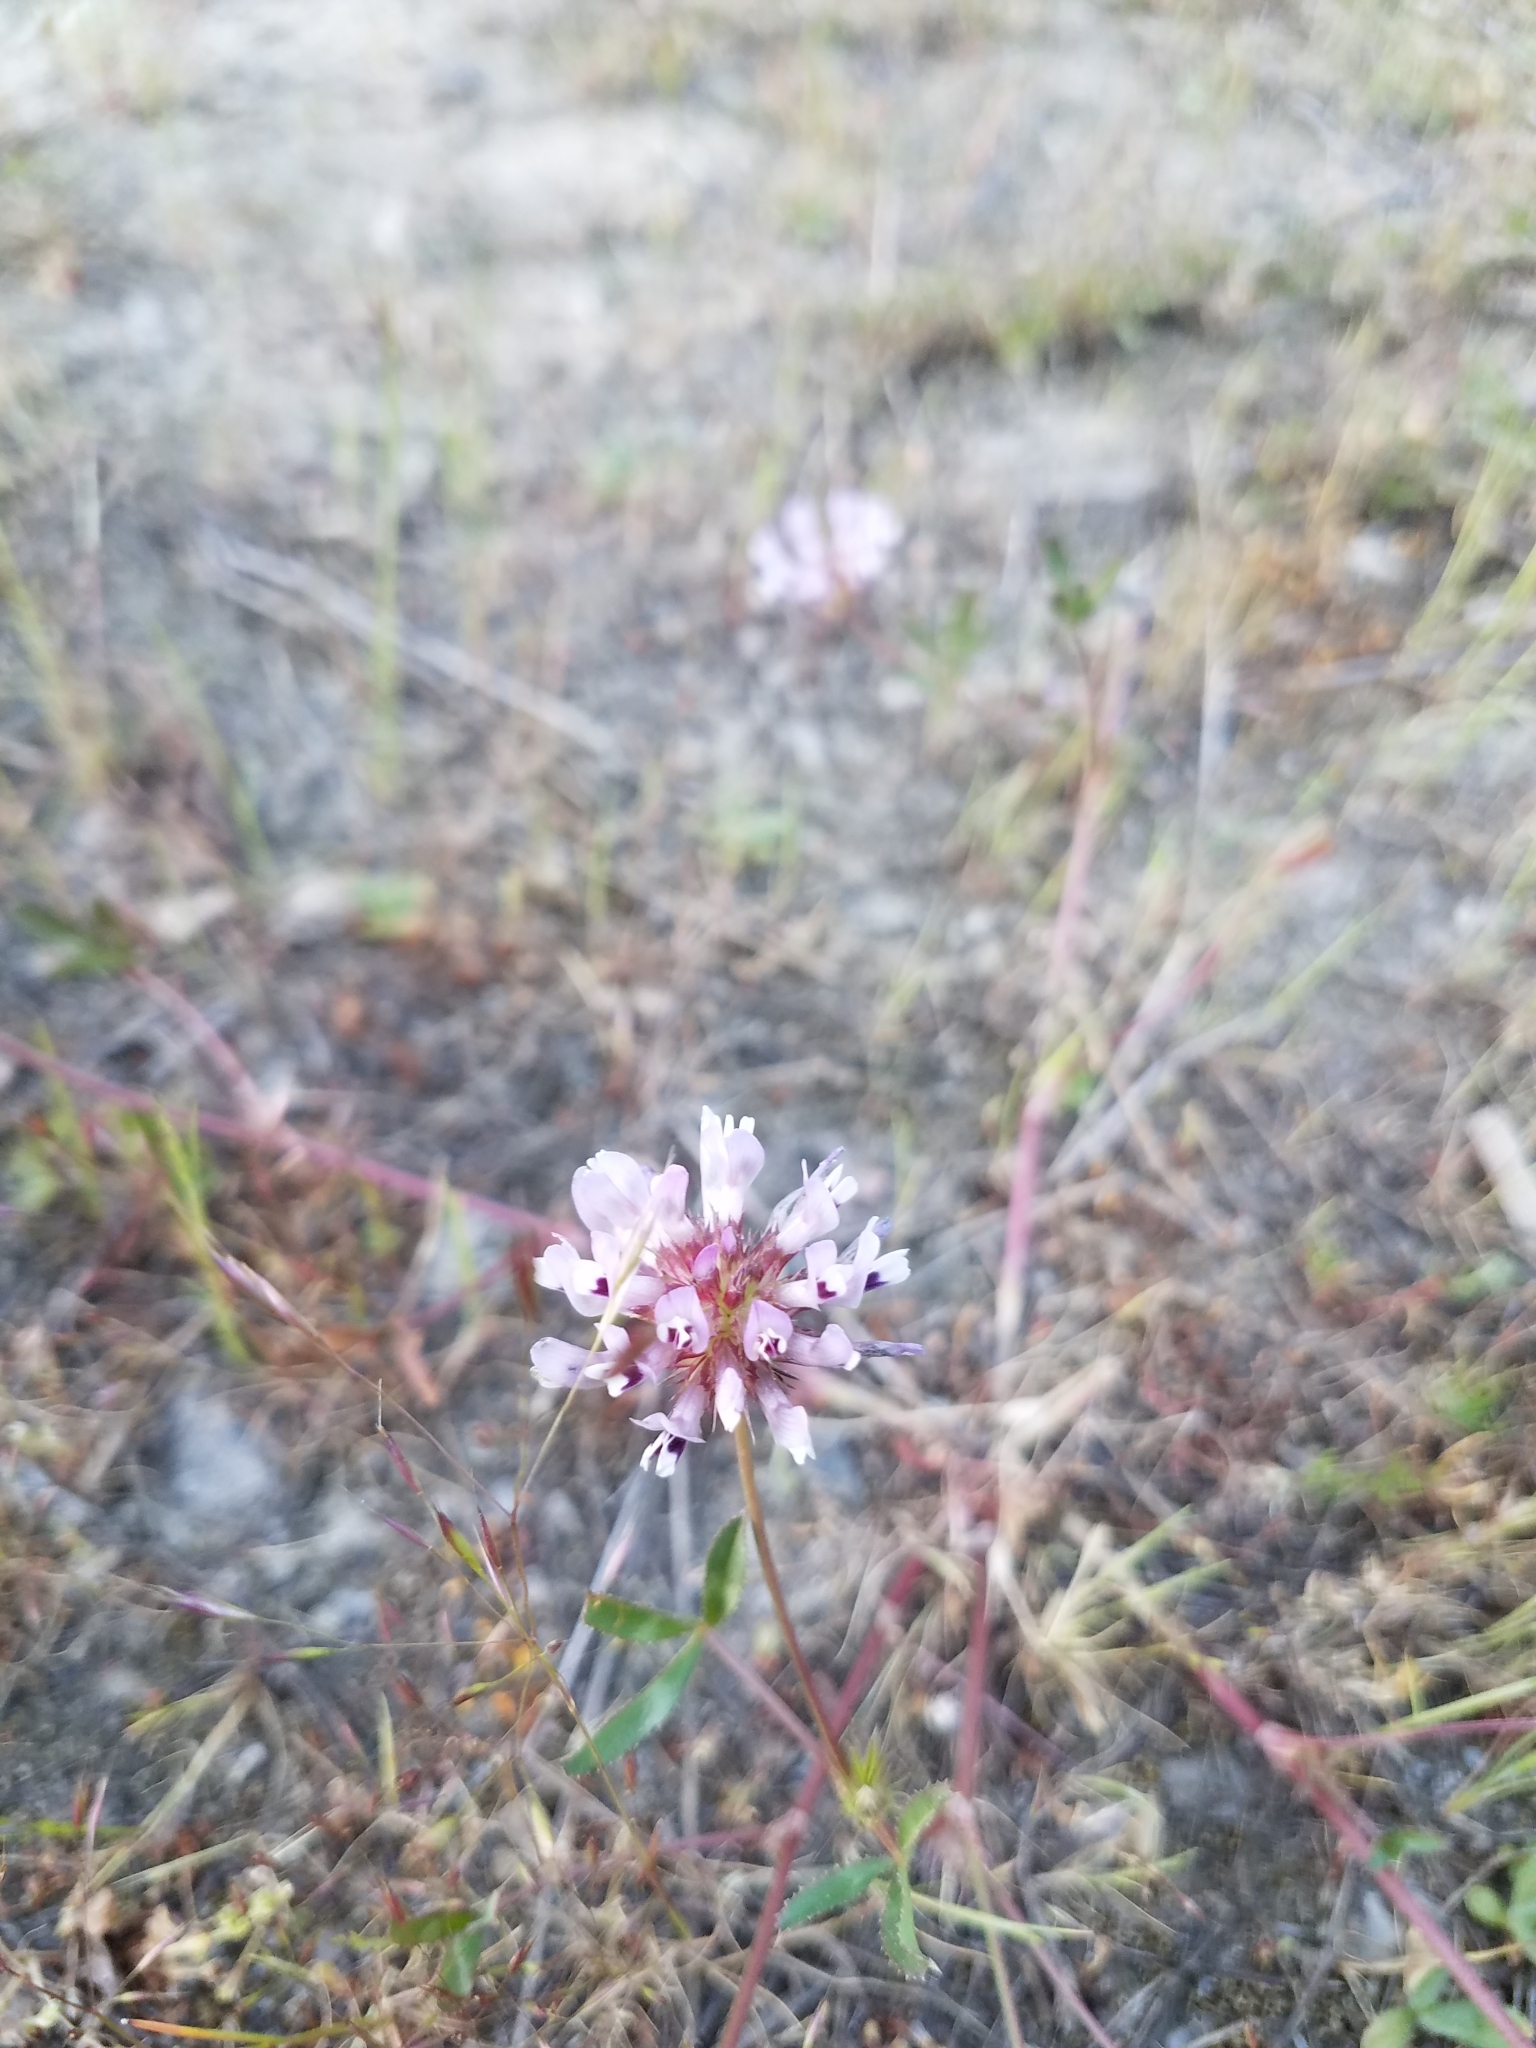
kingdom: Plantae
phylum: Tracheophyta
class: Magnoliopsida
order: Fabales
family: Fabaceae
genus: Trifolium
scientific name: Trifolium willdenovii
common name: Tomcat clover
